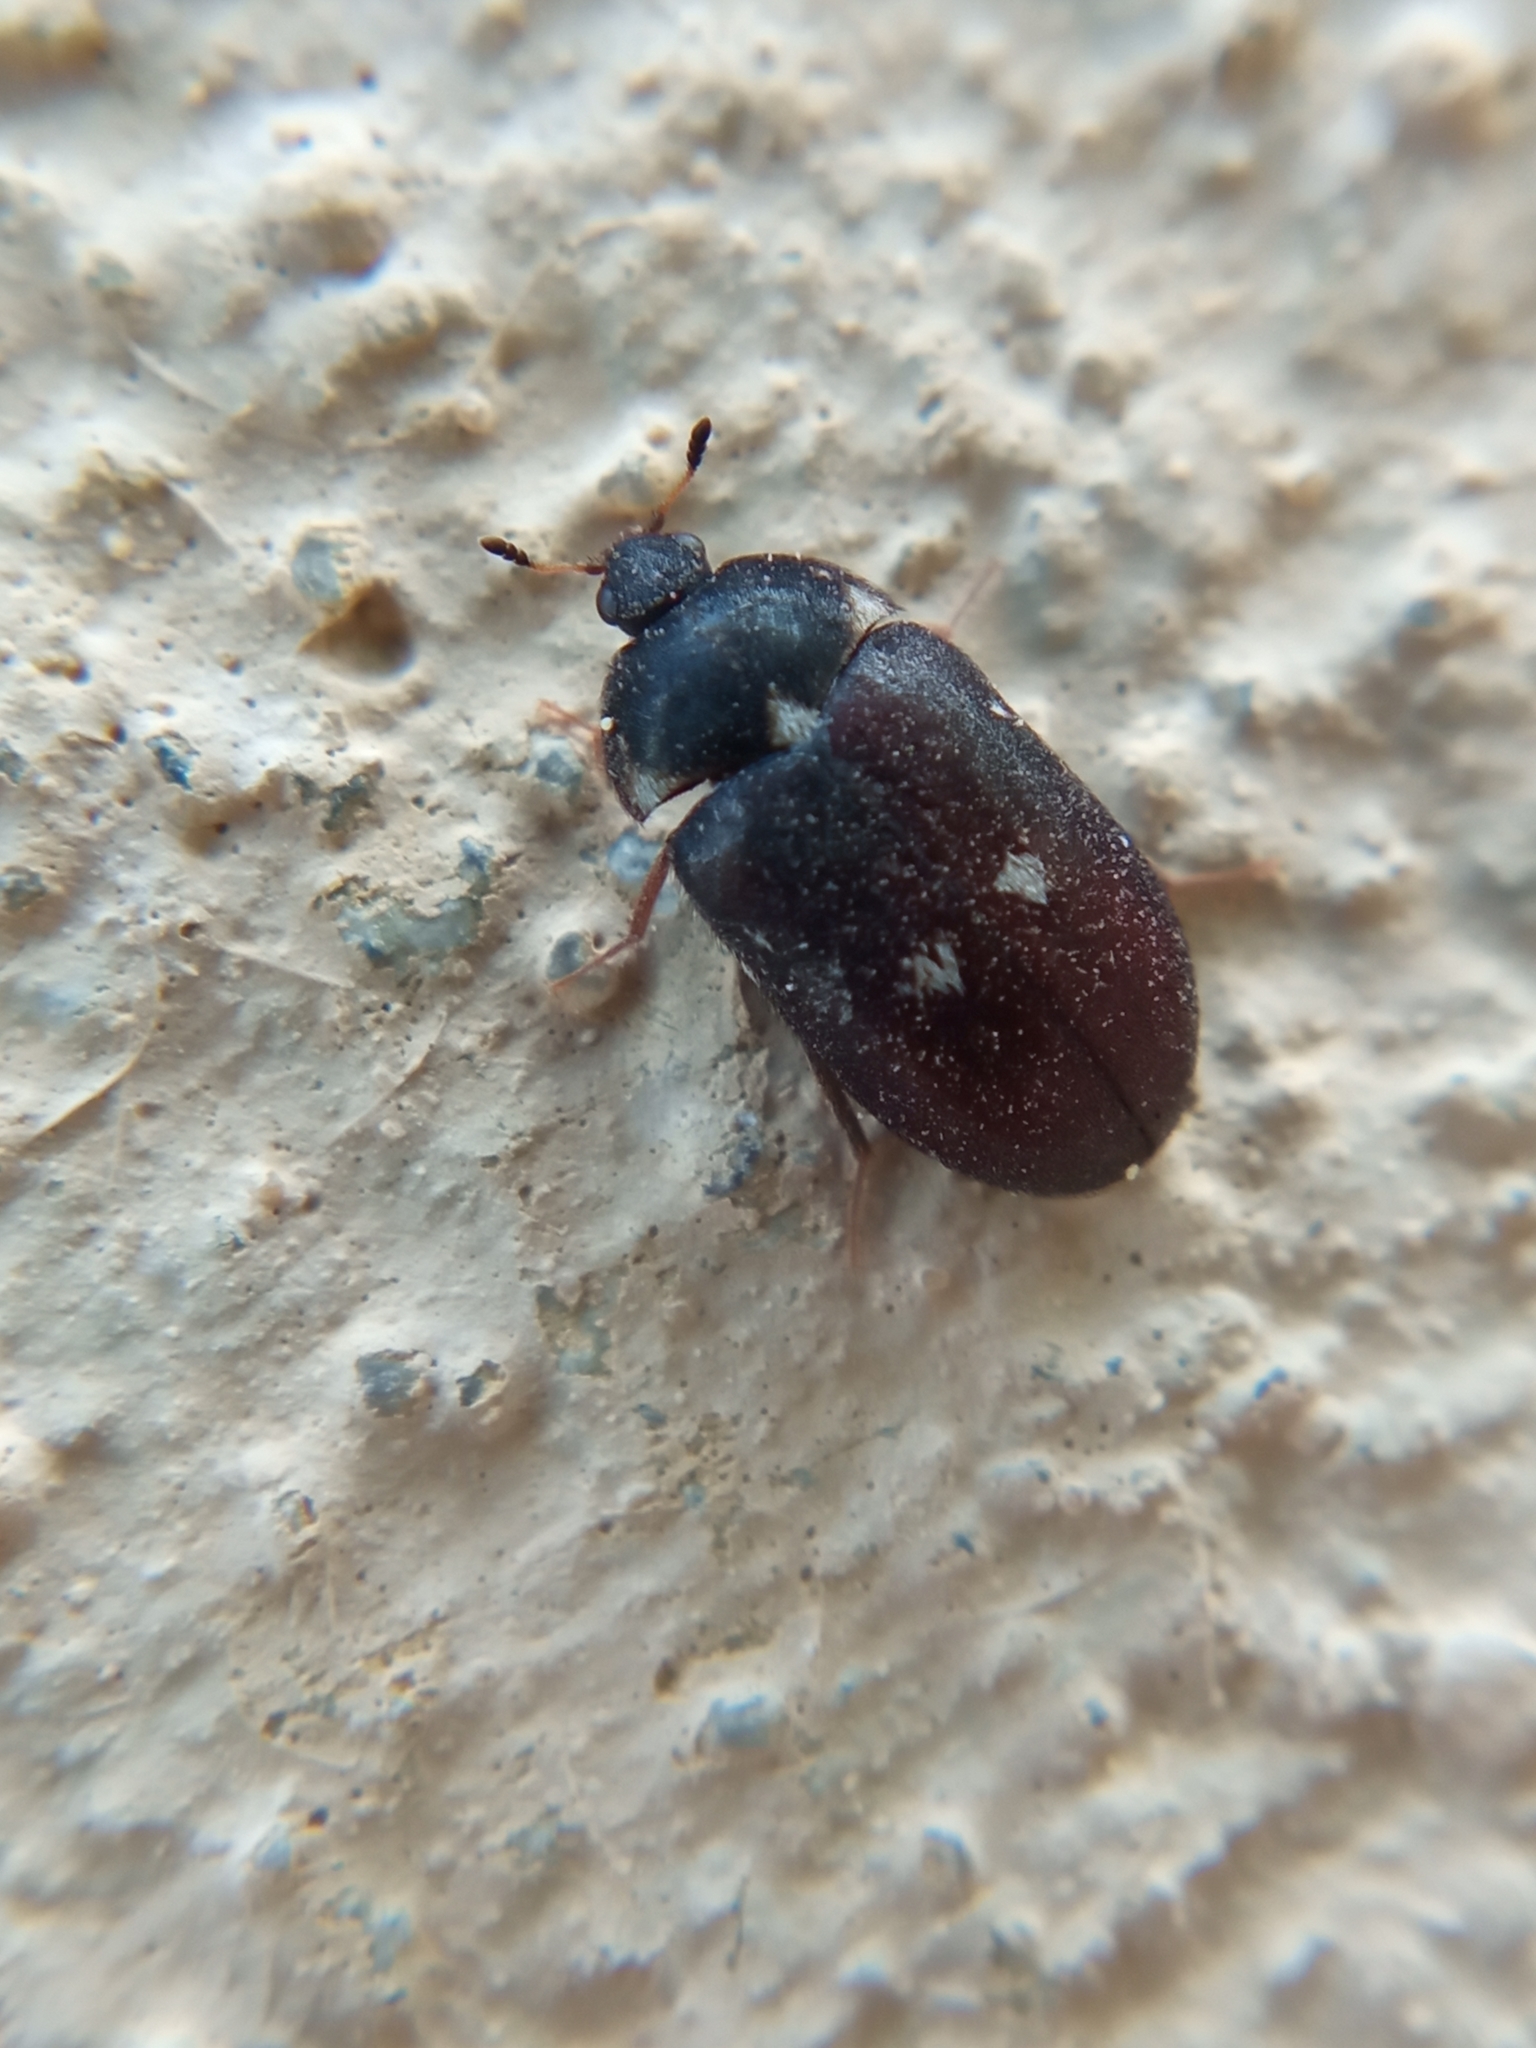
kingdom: Animalia
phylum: Arthropoda
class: Insecta
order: Coleoptera
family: Dermestidae
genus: Attagenus
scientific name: Attagenus pellio
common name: Two-spotted carpet beetle
